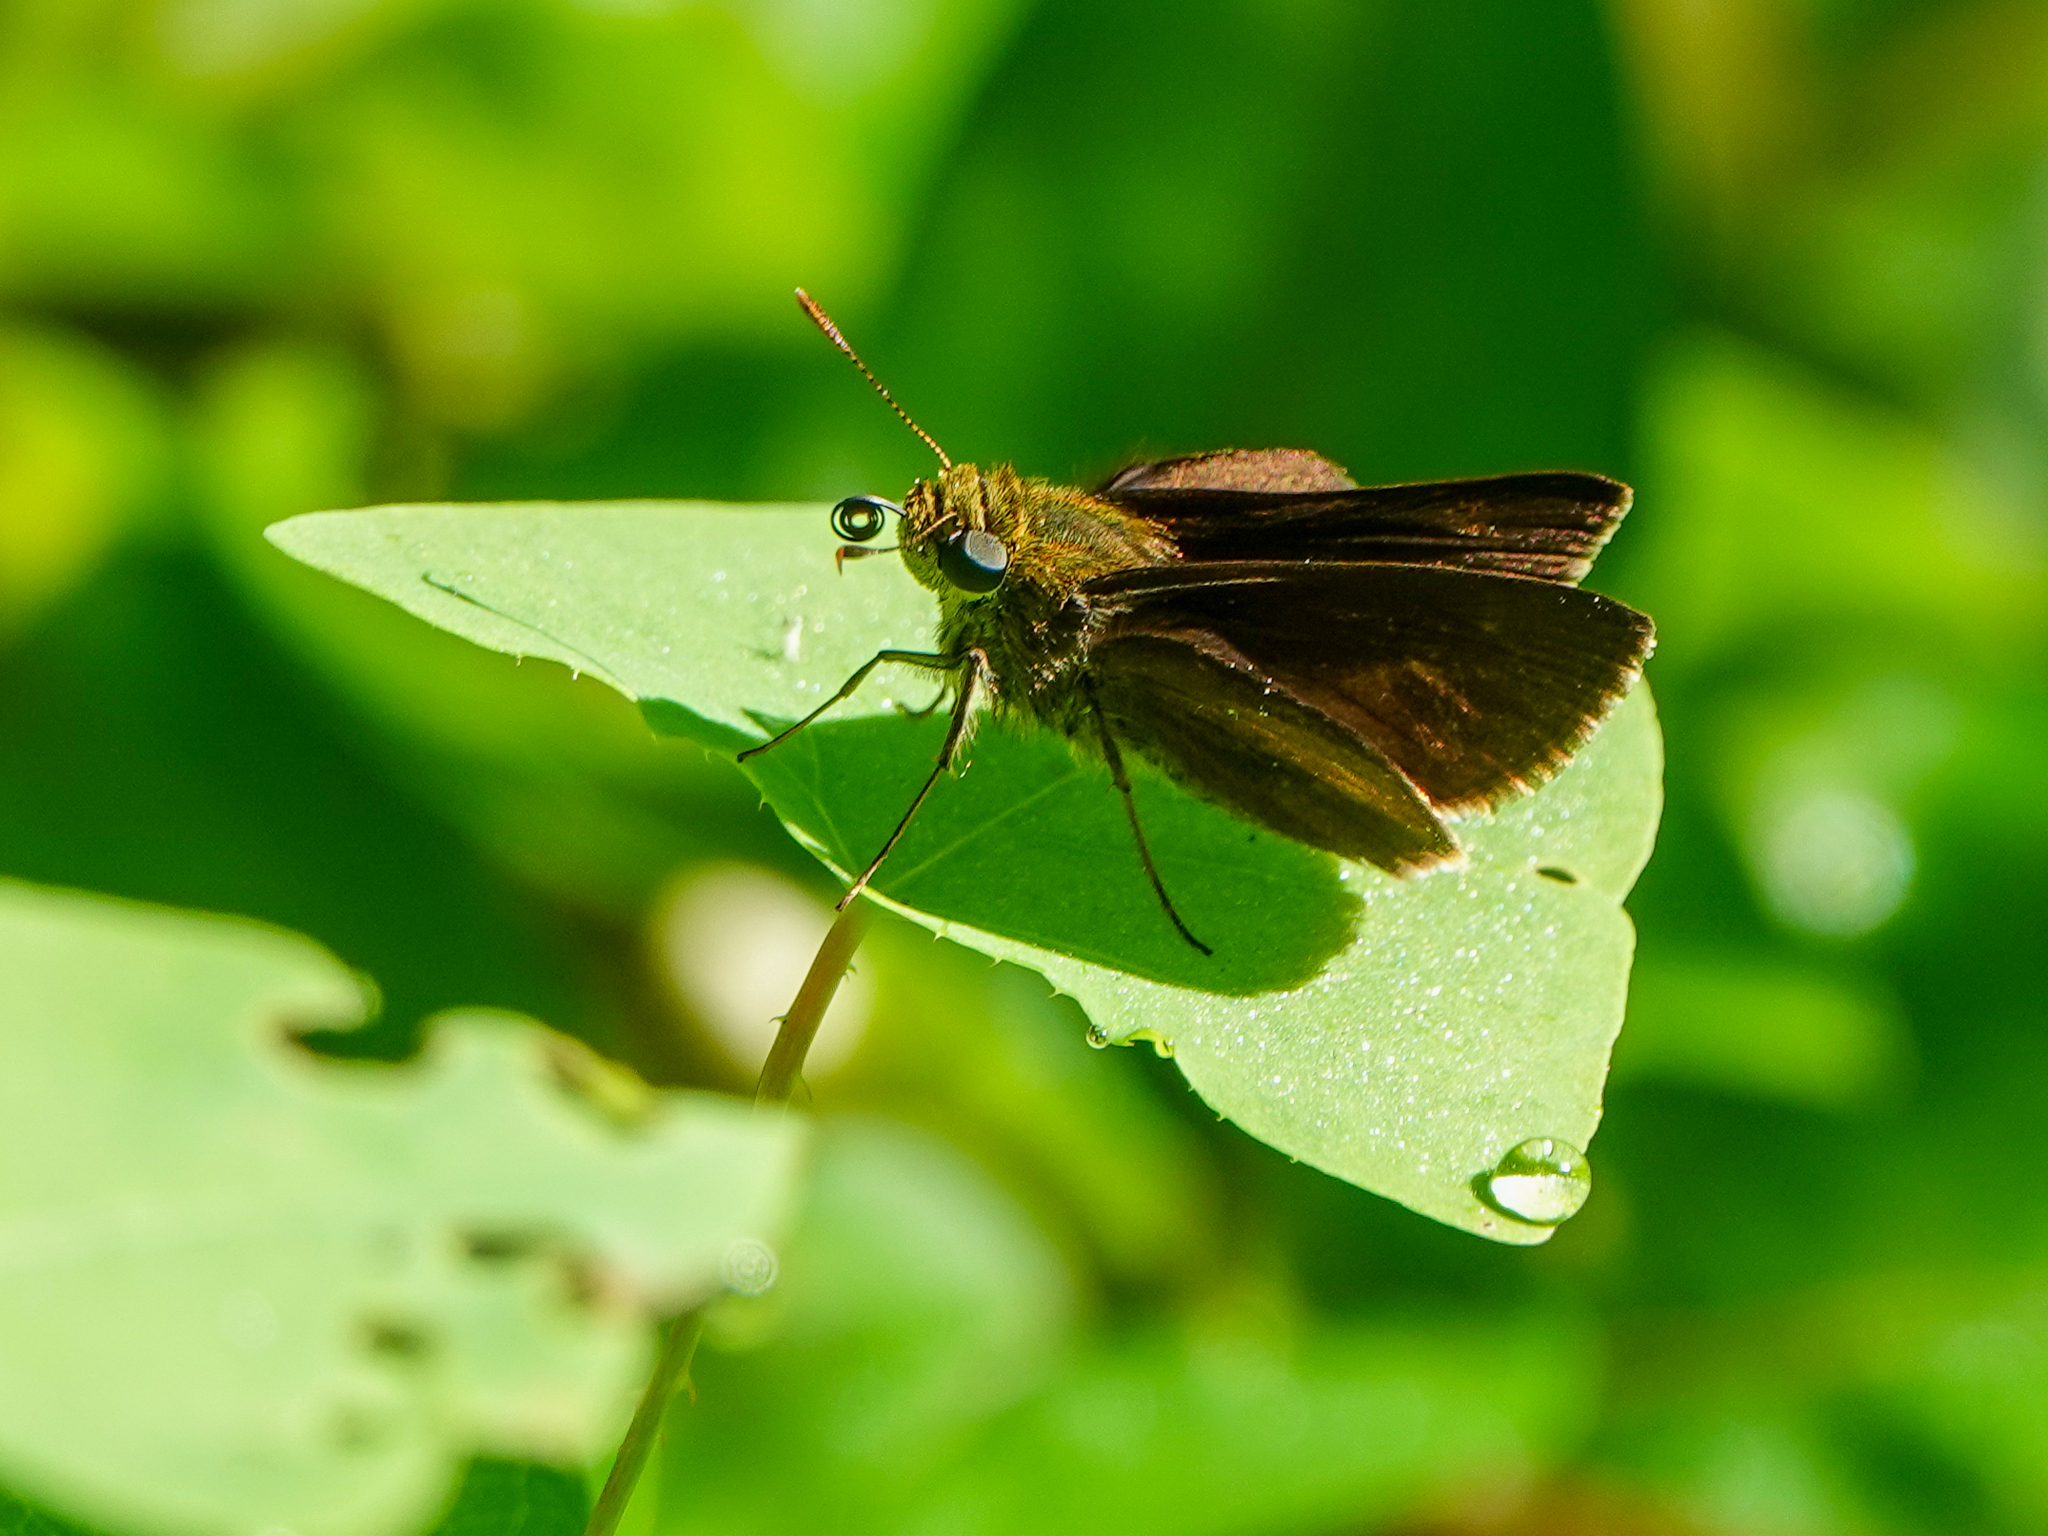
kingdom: Animalia
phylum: Arthropoda
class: Insecta
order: Lepidoptera
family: Hesperiidae
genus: Euphyes
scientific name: Euphyes vestris
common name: Dun skipper
